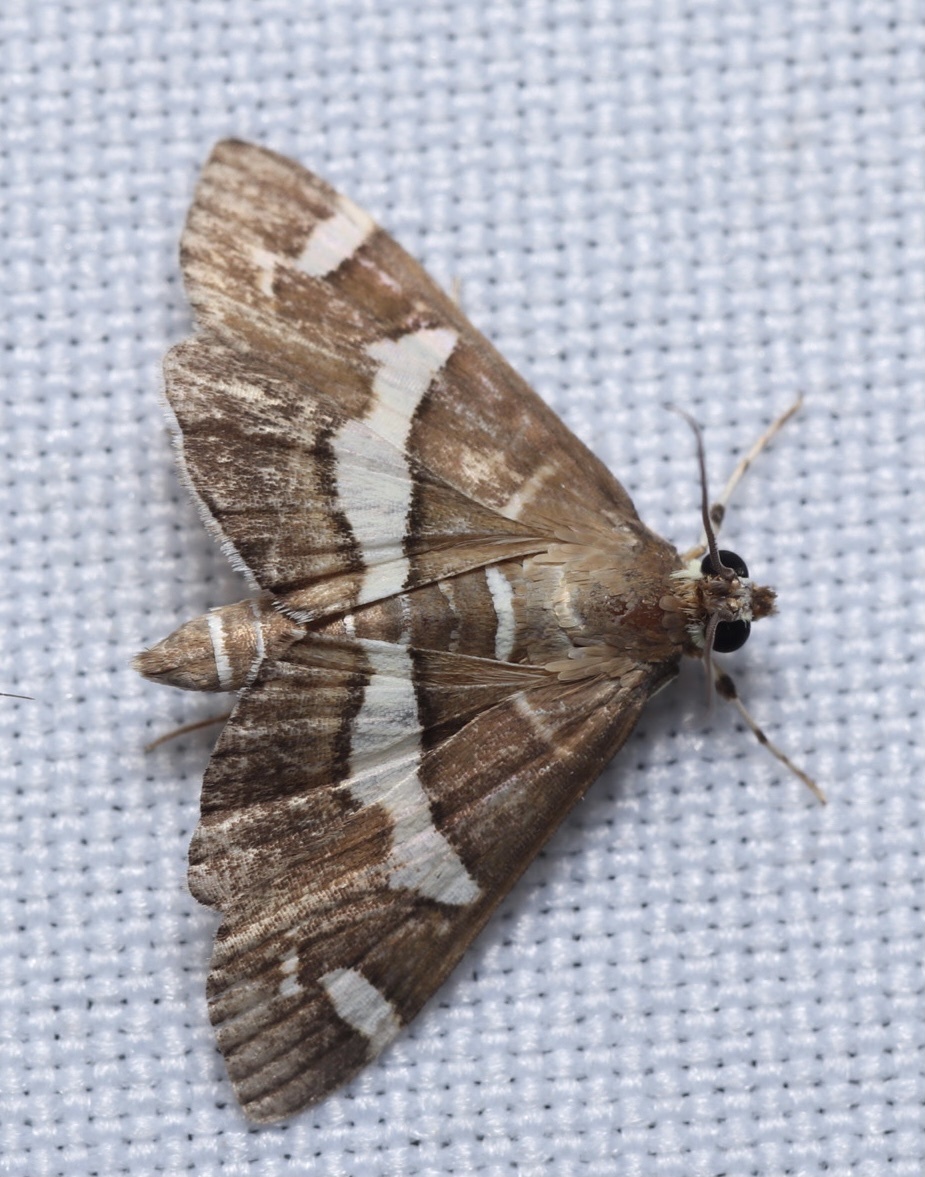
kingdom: Animalia
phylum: Arthropoda
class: Insecta
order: Lepidoptera
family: Crambidae
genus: Spoladea
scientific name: Spoladea recurvalis
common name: Beet webworm moth
